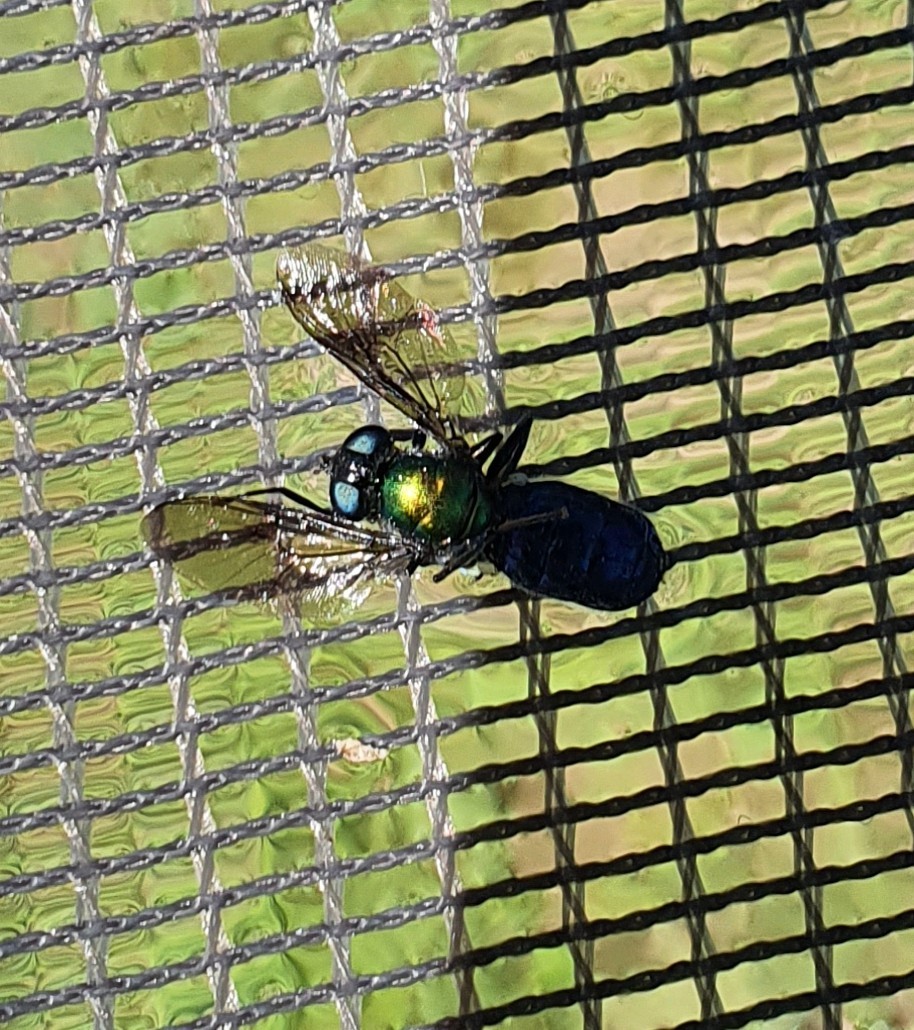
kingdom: Animalia
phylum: Arthropoda
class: Insecta
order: Diptera
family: Stratiomyidae
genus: Chloromyia
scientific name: Chloromyia formosa
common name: Soldier fly
